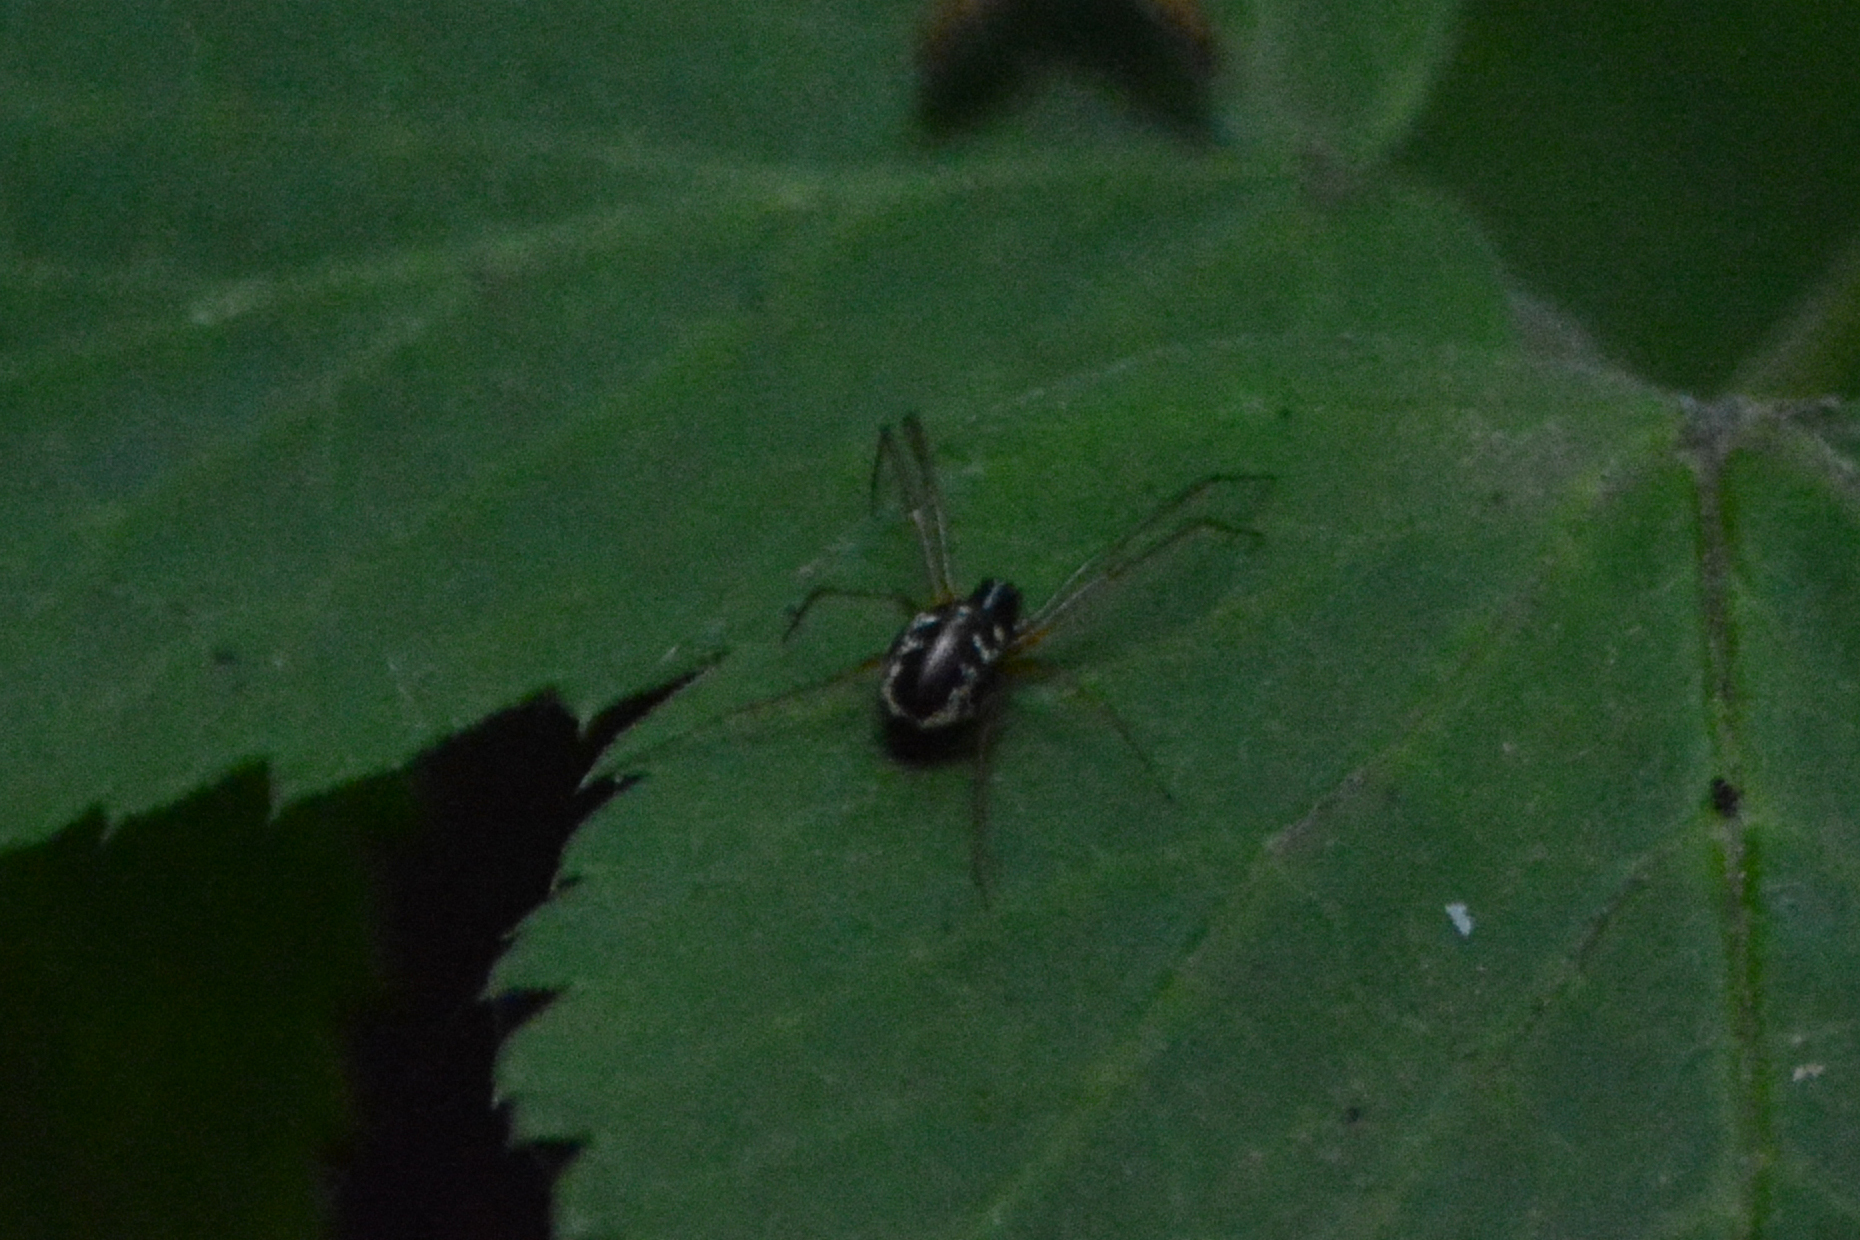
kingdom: Animalia
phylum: Arthropoda
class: Arachnida
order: Araneae
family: Linyphiidae
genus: Linyphia
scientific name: Linyphia hortensis
